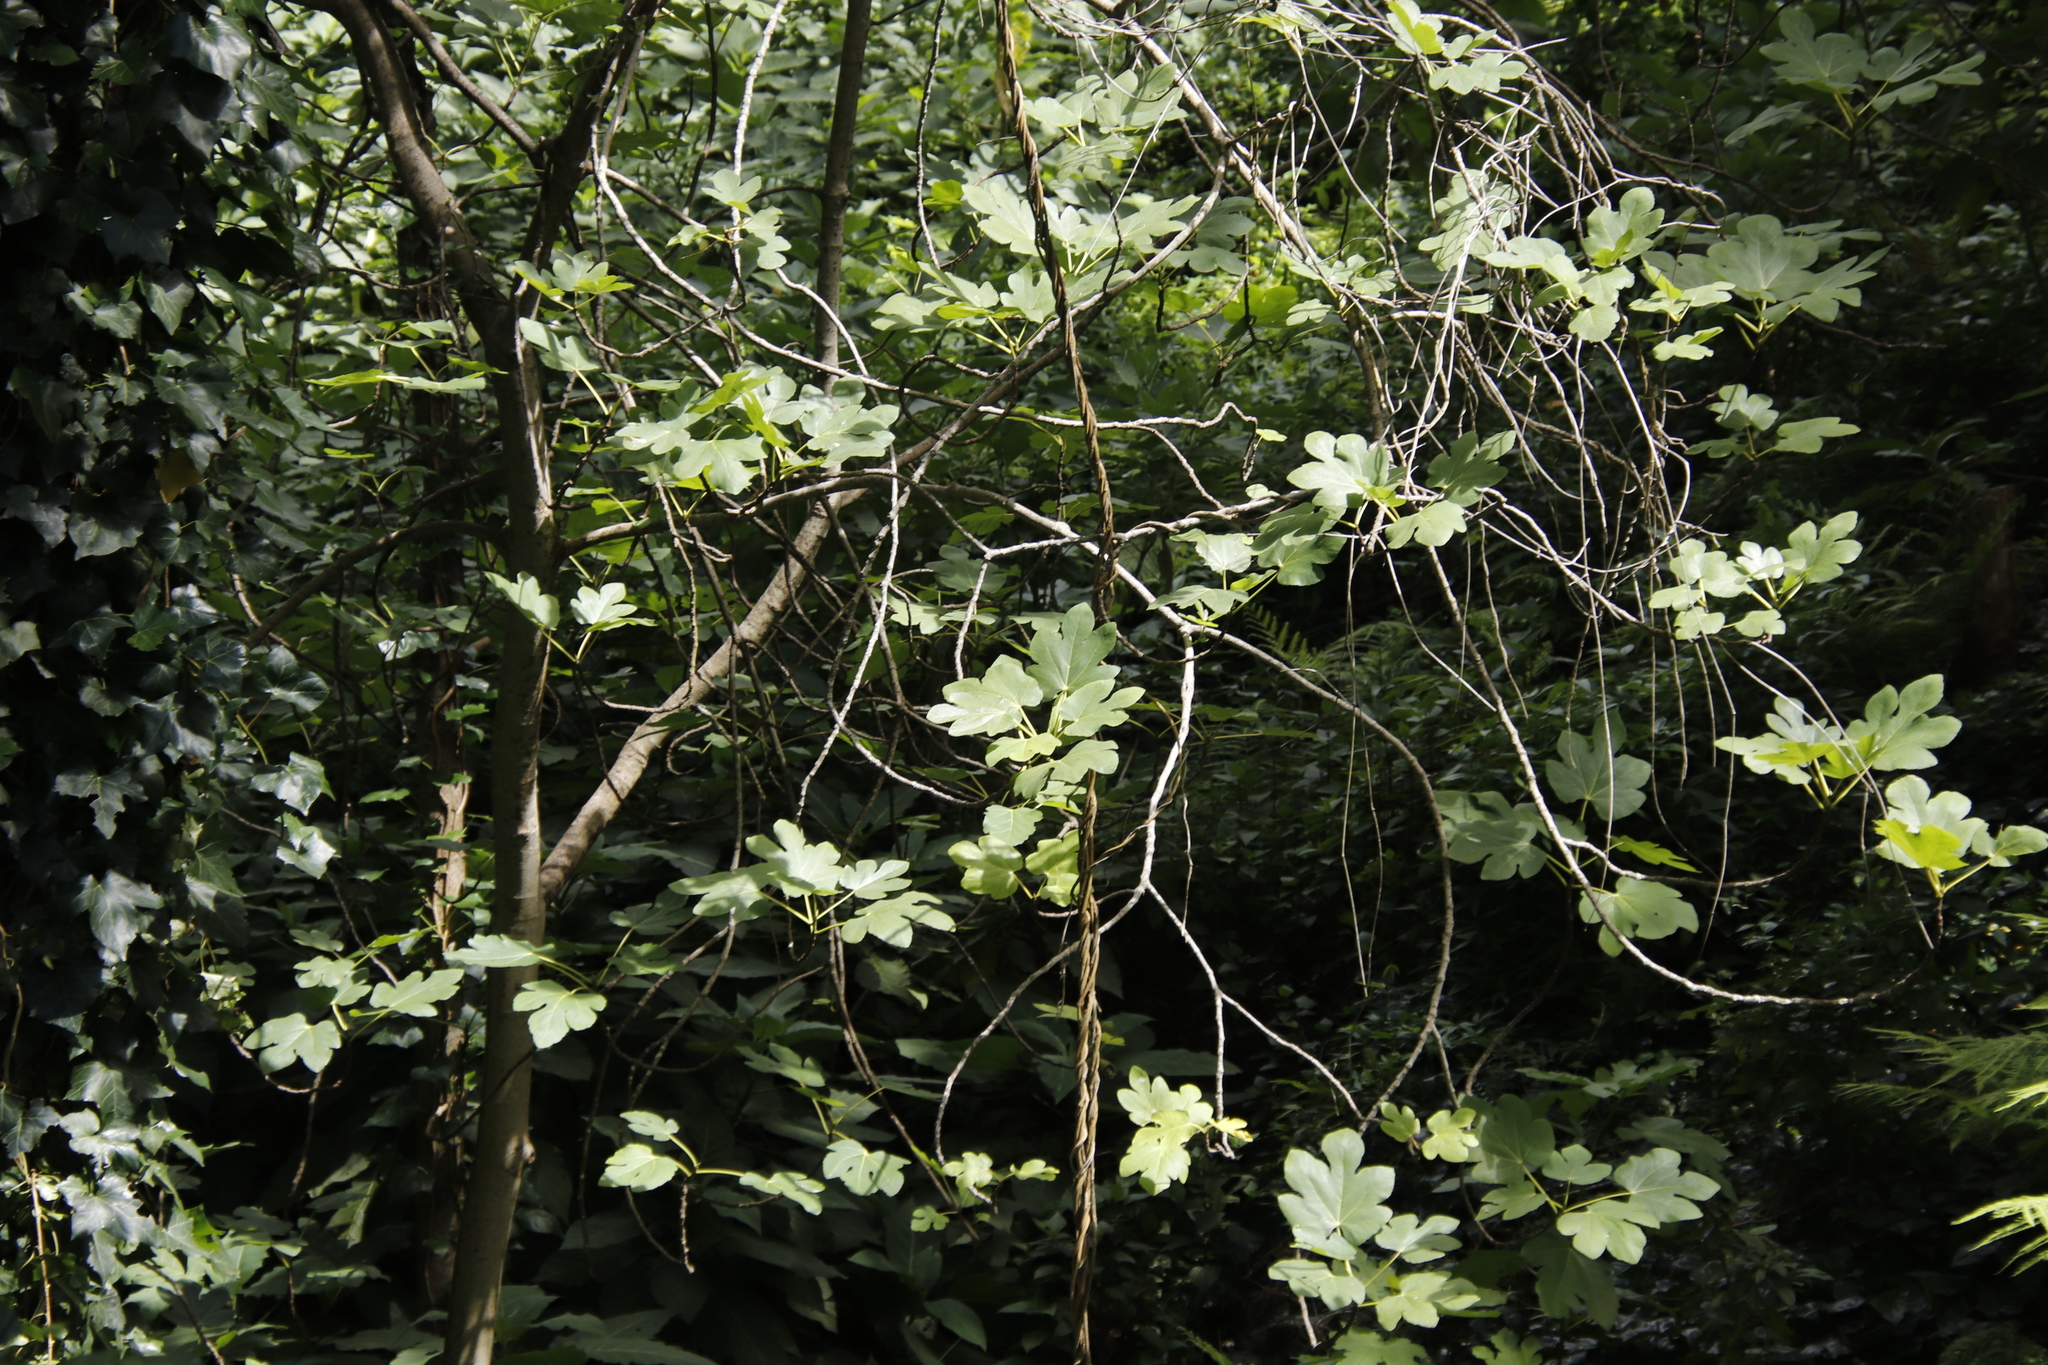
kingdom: Plantae
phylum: Tracheophyta
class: Magnoliopsida
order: Rosales
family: Moraceae
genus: Ficus
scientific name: Ficus carica
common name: Fig
